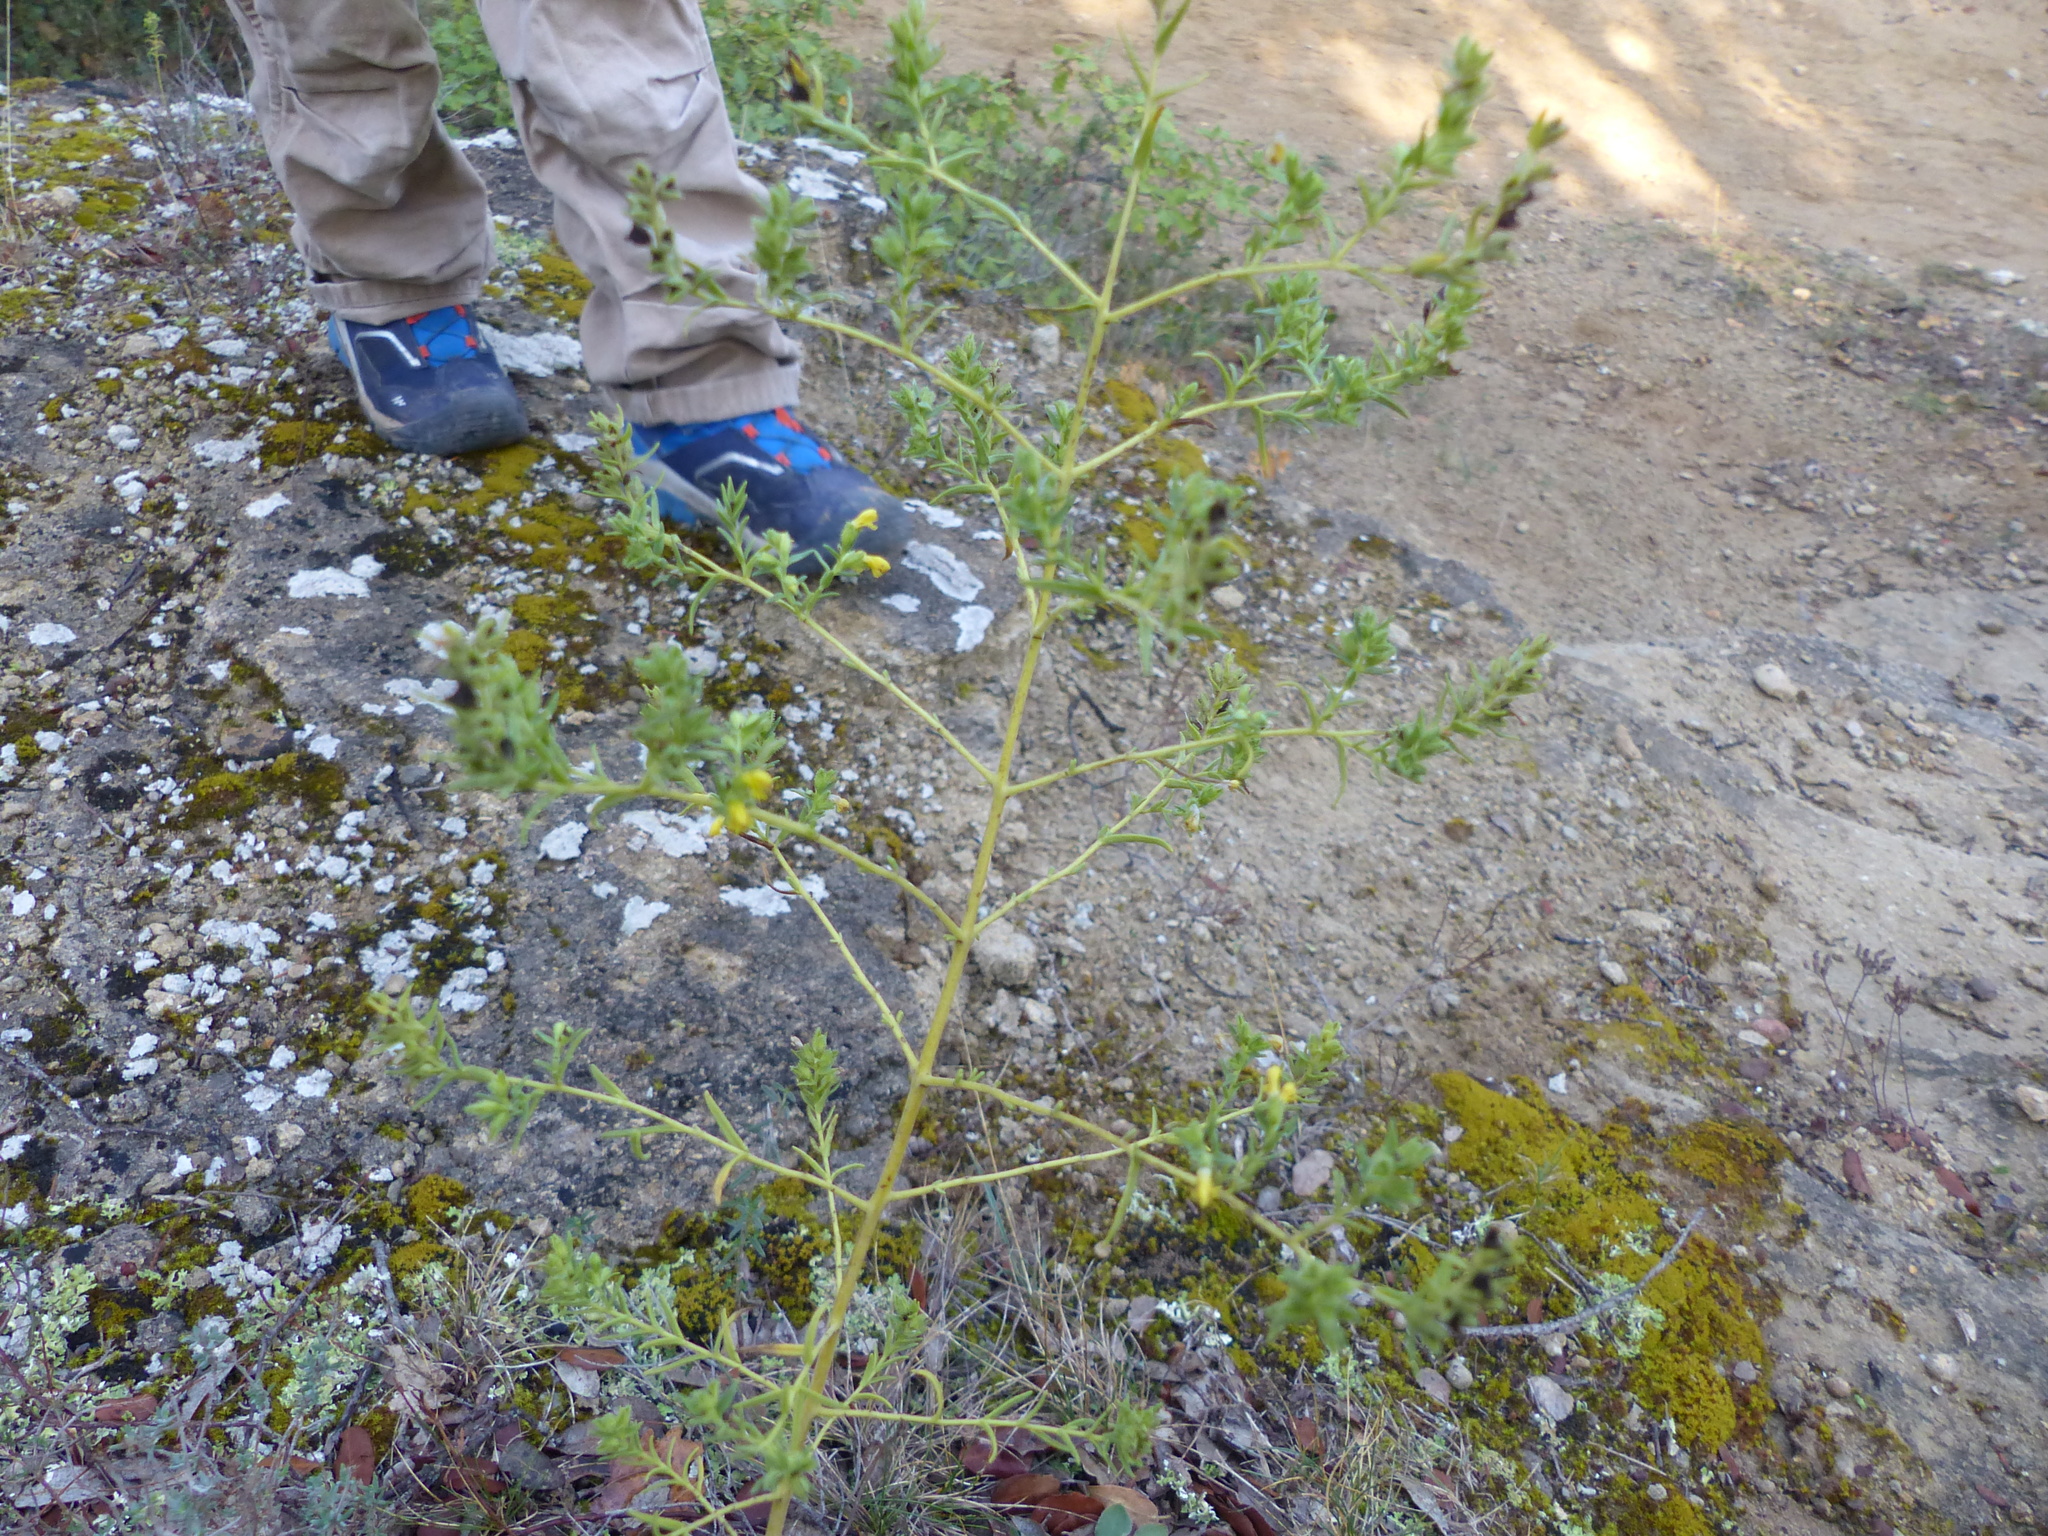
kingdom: Plantae
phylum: Tracheophyta
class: Magnoliopsida
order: Lamiales
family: Orobanchaceae
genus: Odontites
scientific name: Odontites viscosus
